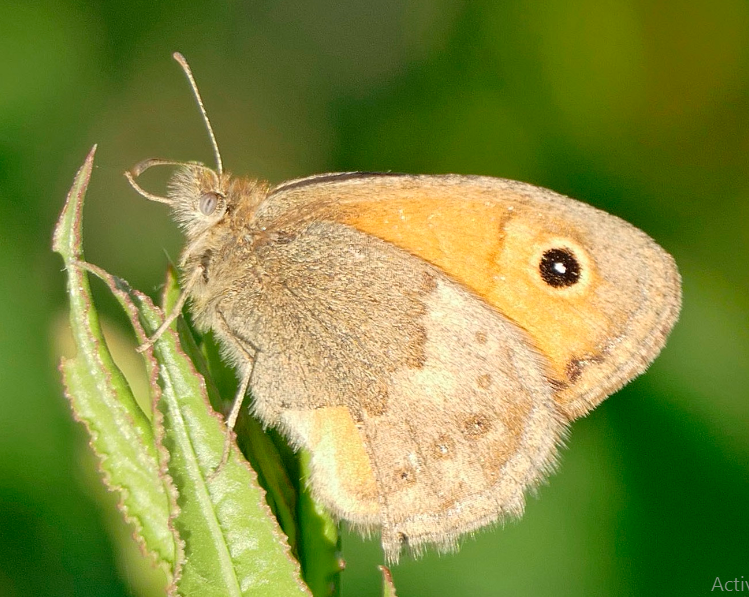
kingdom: Animalia
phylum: Arthropoda
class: Insecta
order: Lepidoptera
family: Nymphalidae
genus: Coenonympha
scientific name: Coenonympha pamphilus
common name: Small heath
